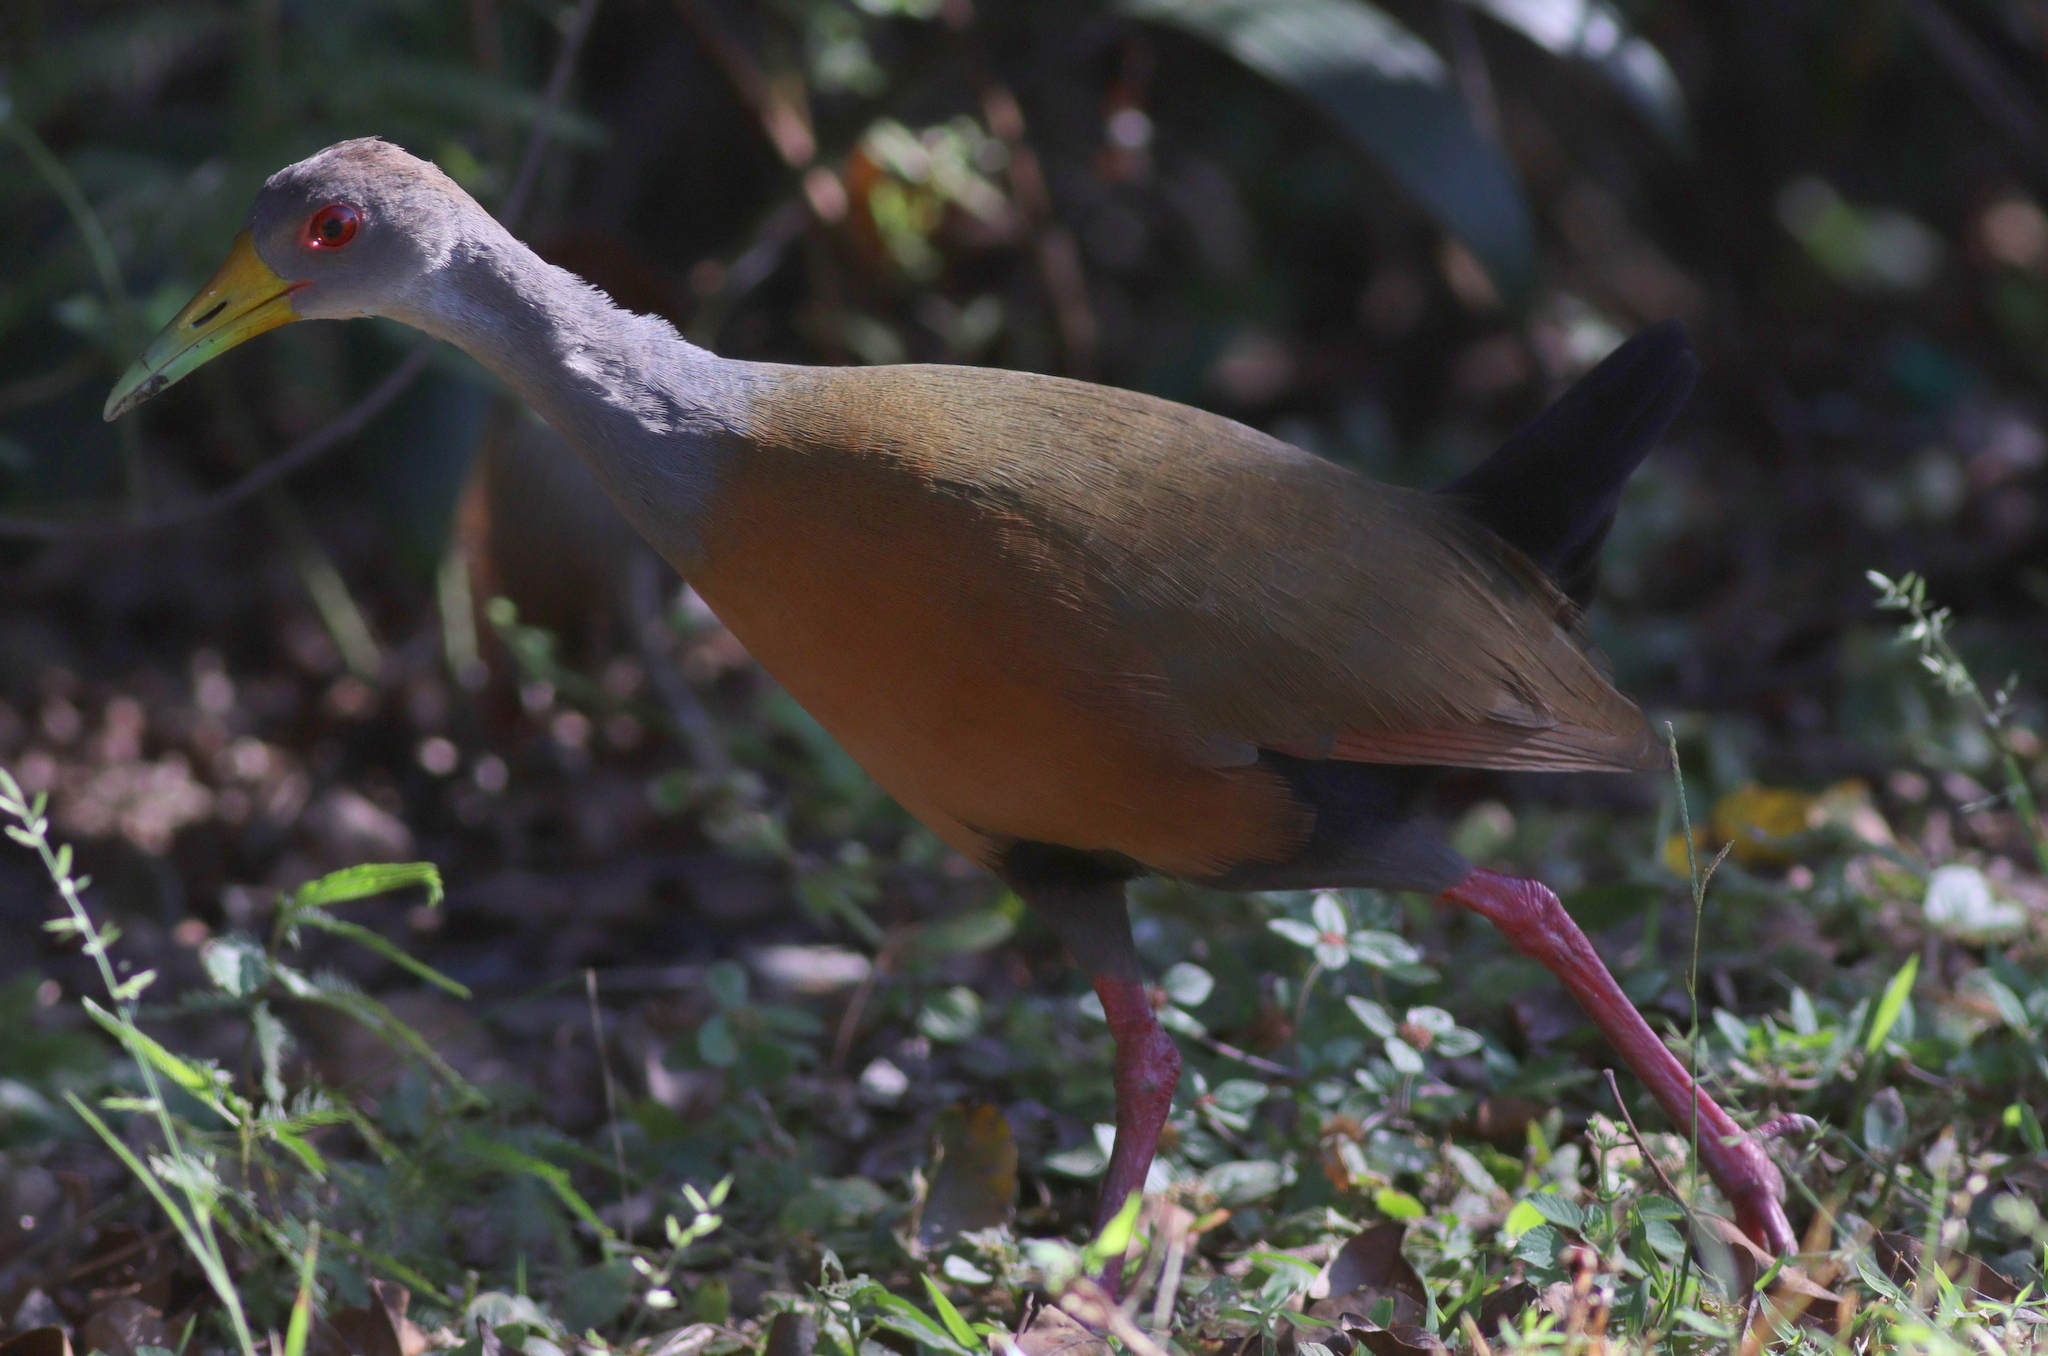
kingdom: Animalia
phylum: Chordata
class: Aves
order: Gruiformes
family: Rallidae
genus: Aramides
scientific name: Aramides cajanea
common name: Gray-necked wood-rail
